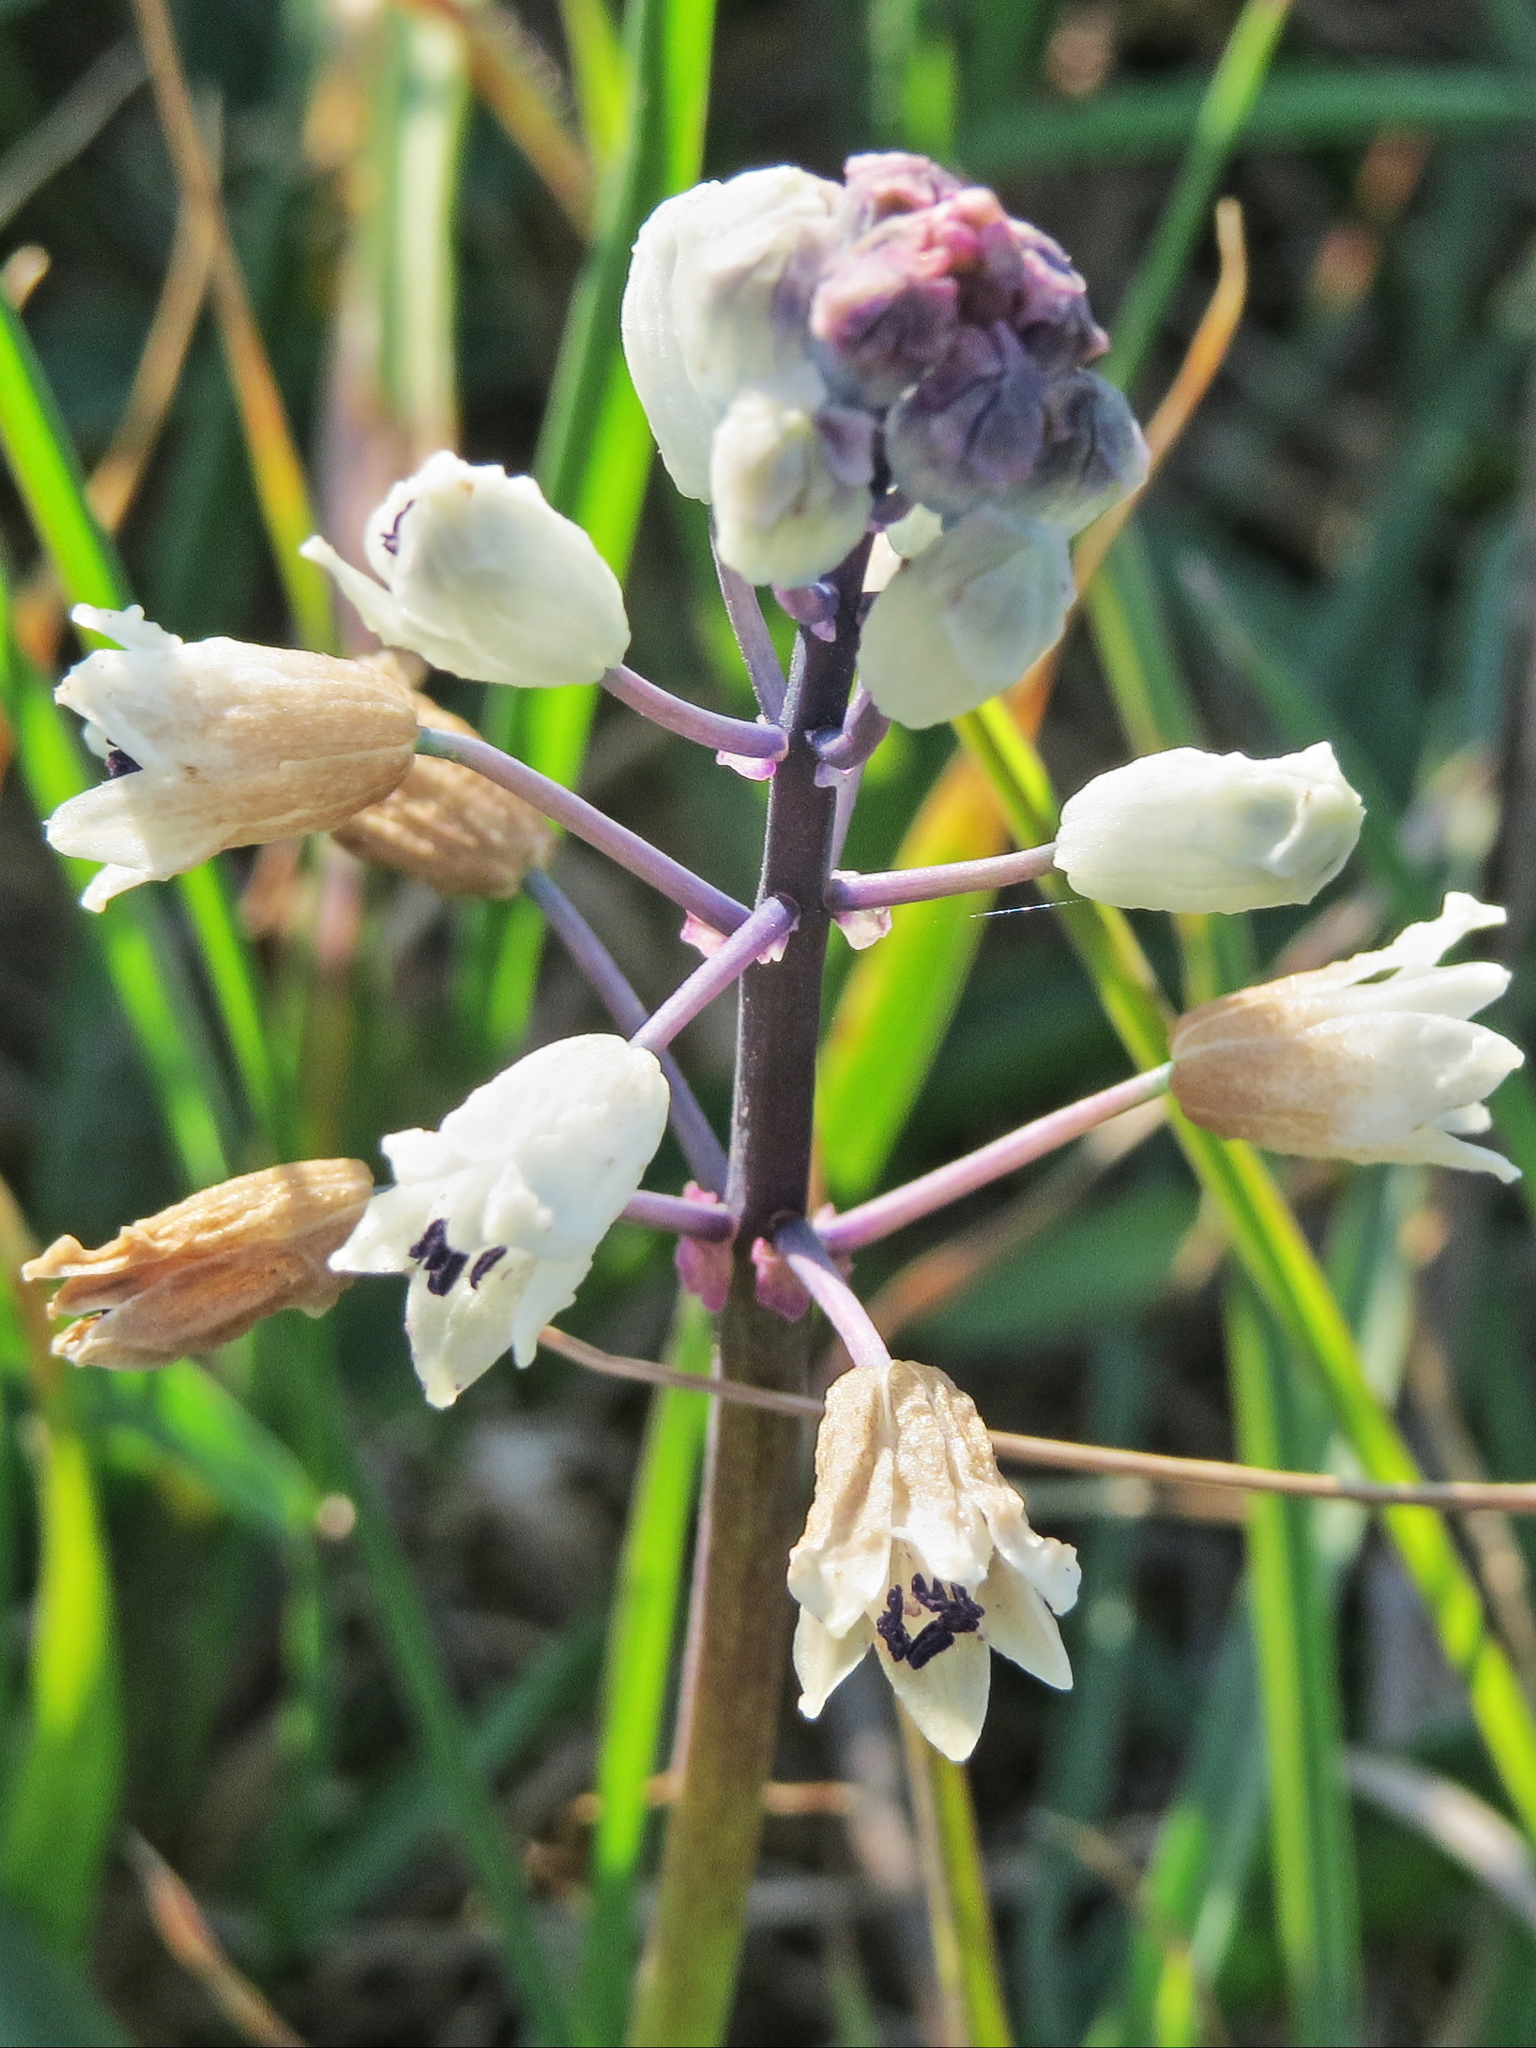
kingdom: Plantae
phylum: Tracheophyta
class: Liliopsida
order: Asparagales
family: Asparagaceae
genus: Bellevalia
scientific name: Bellevalia romana
